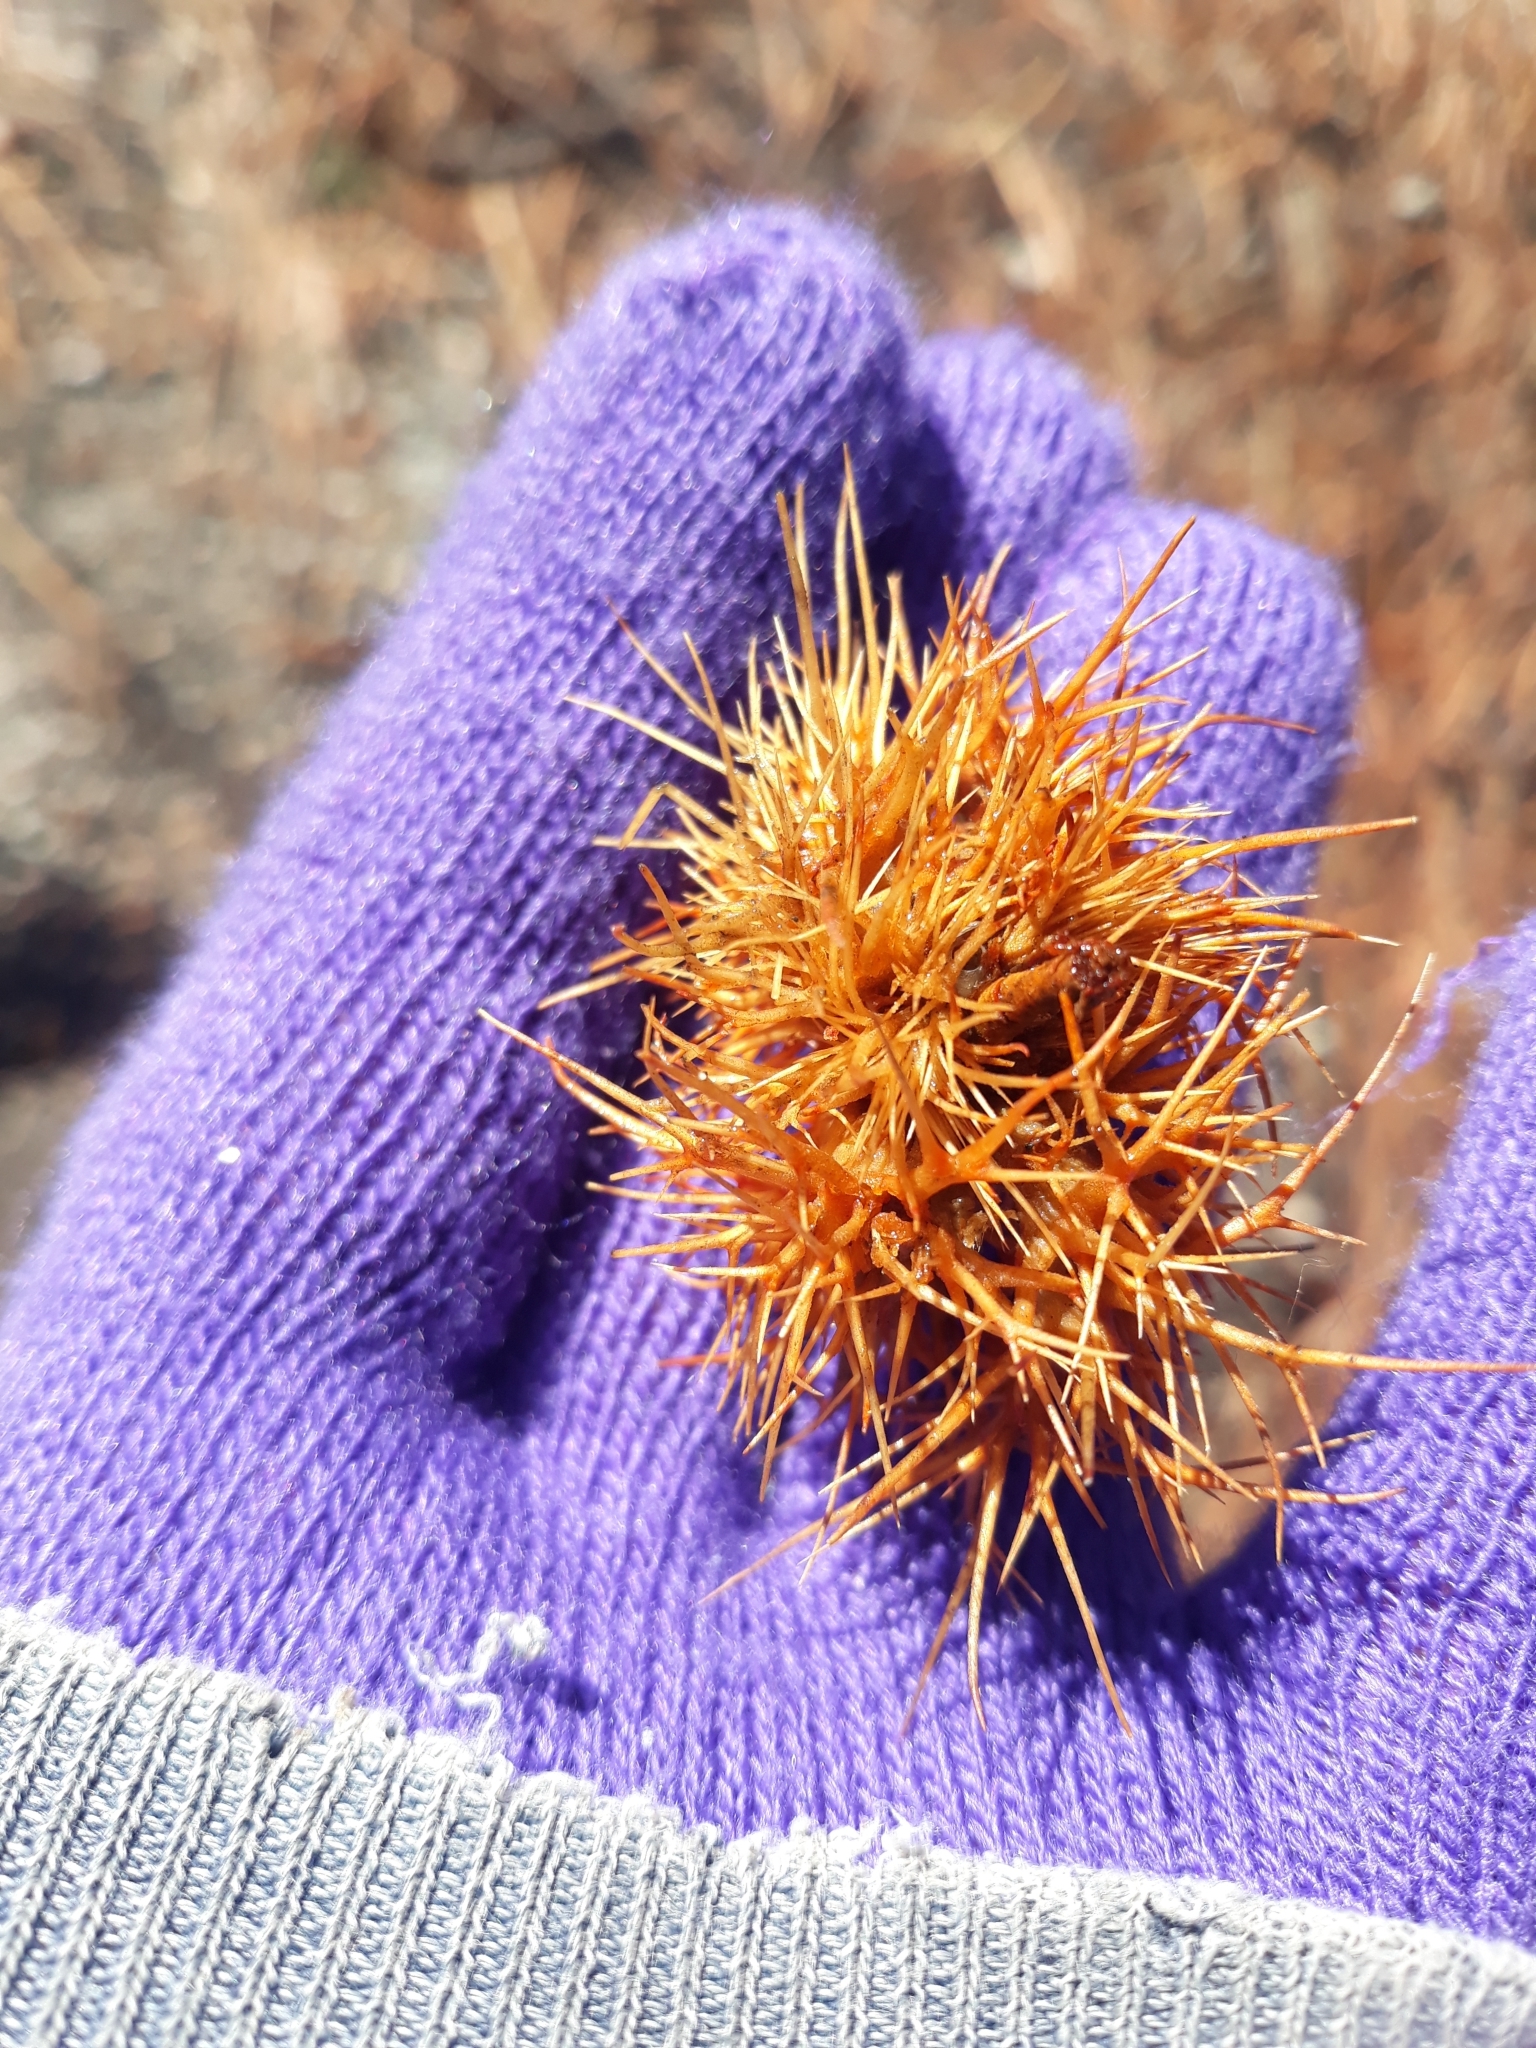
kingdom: Plantae
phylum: Tracheophyta
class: Magnoliopsida
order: Fagales
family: Fagaceae
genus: Chrysolepis
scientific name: Chrysolepis sempervirens
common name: Bush chinquapin
